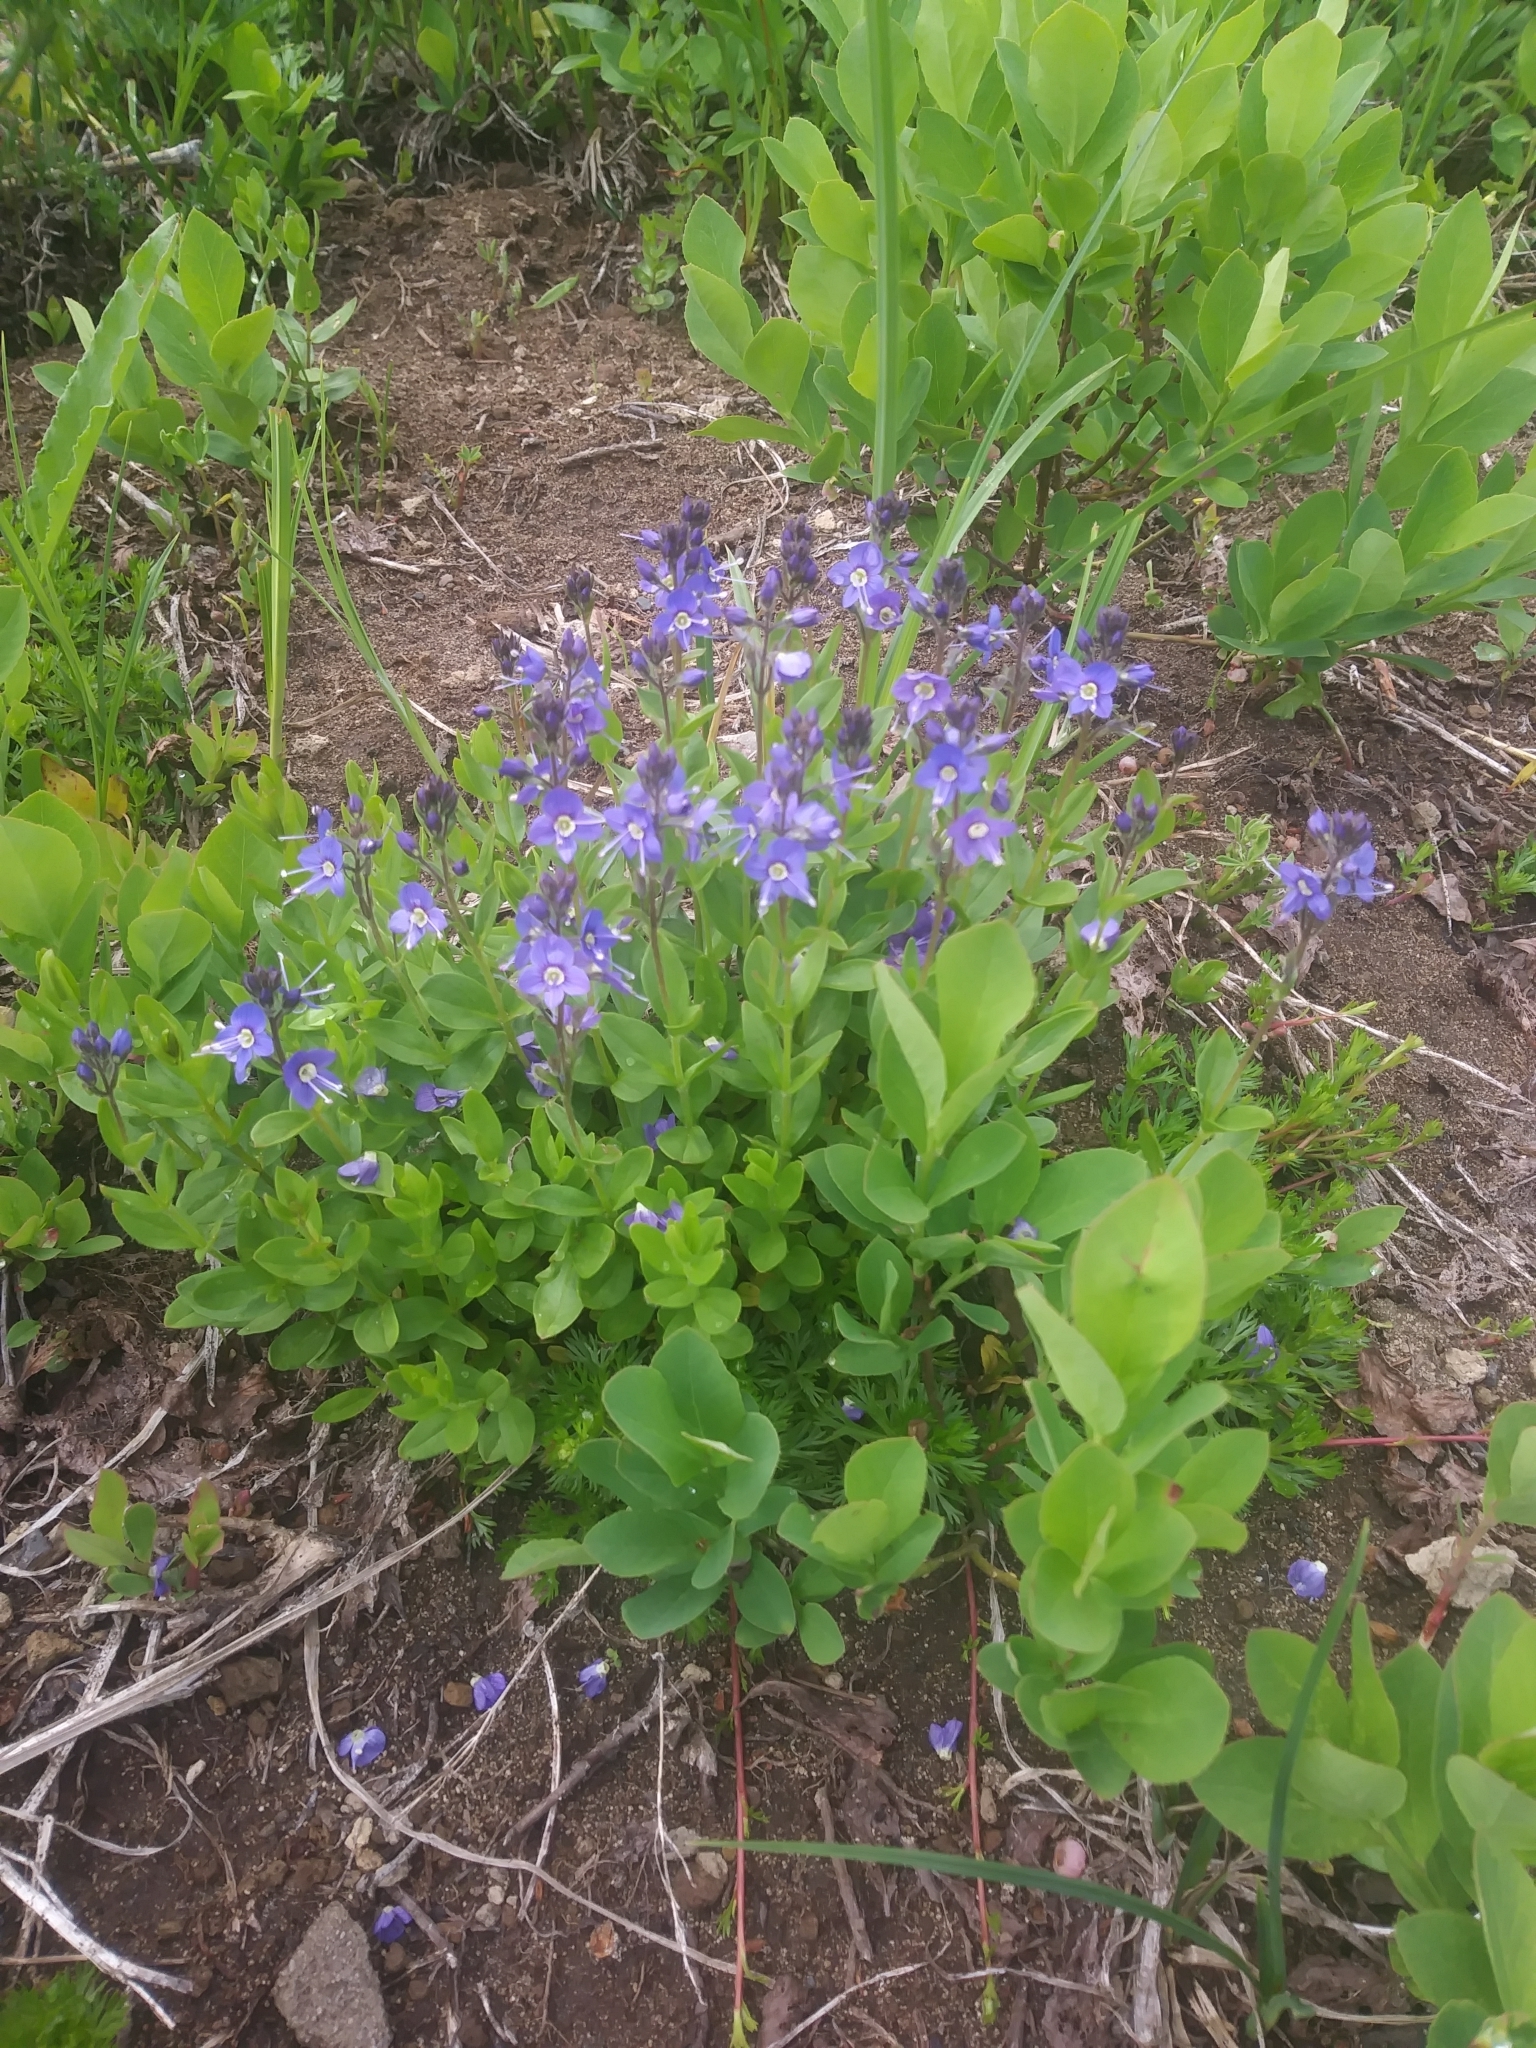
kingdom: Plantae
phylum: Tracheophyta
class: Magnoliopsida
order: Lamiales
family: Plantaginaceae
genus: Veronica
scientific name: Veronica cusickii
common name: Cusick's speedwell
